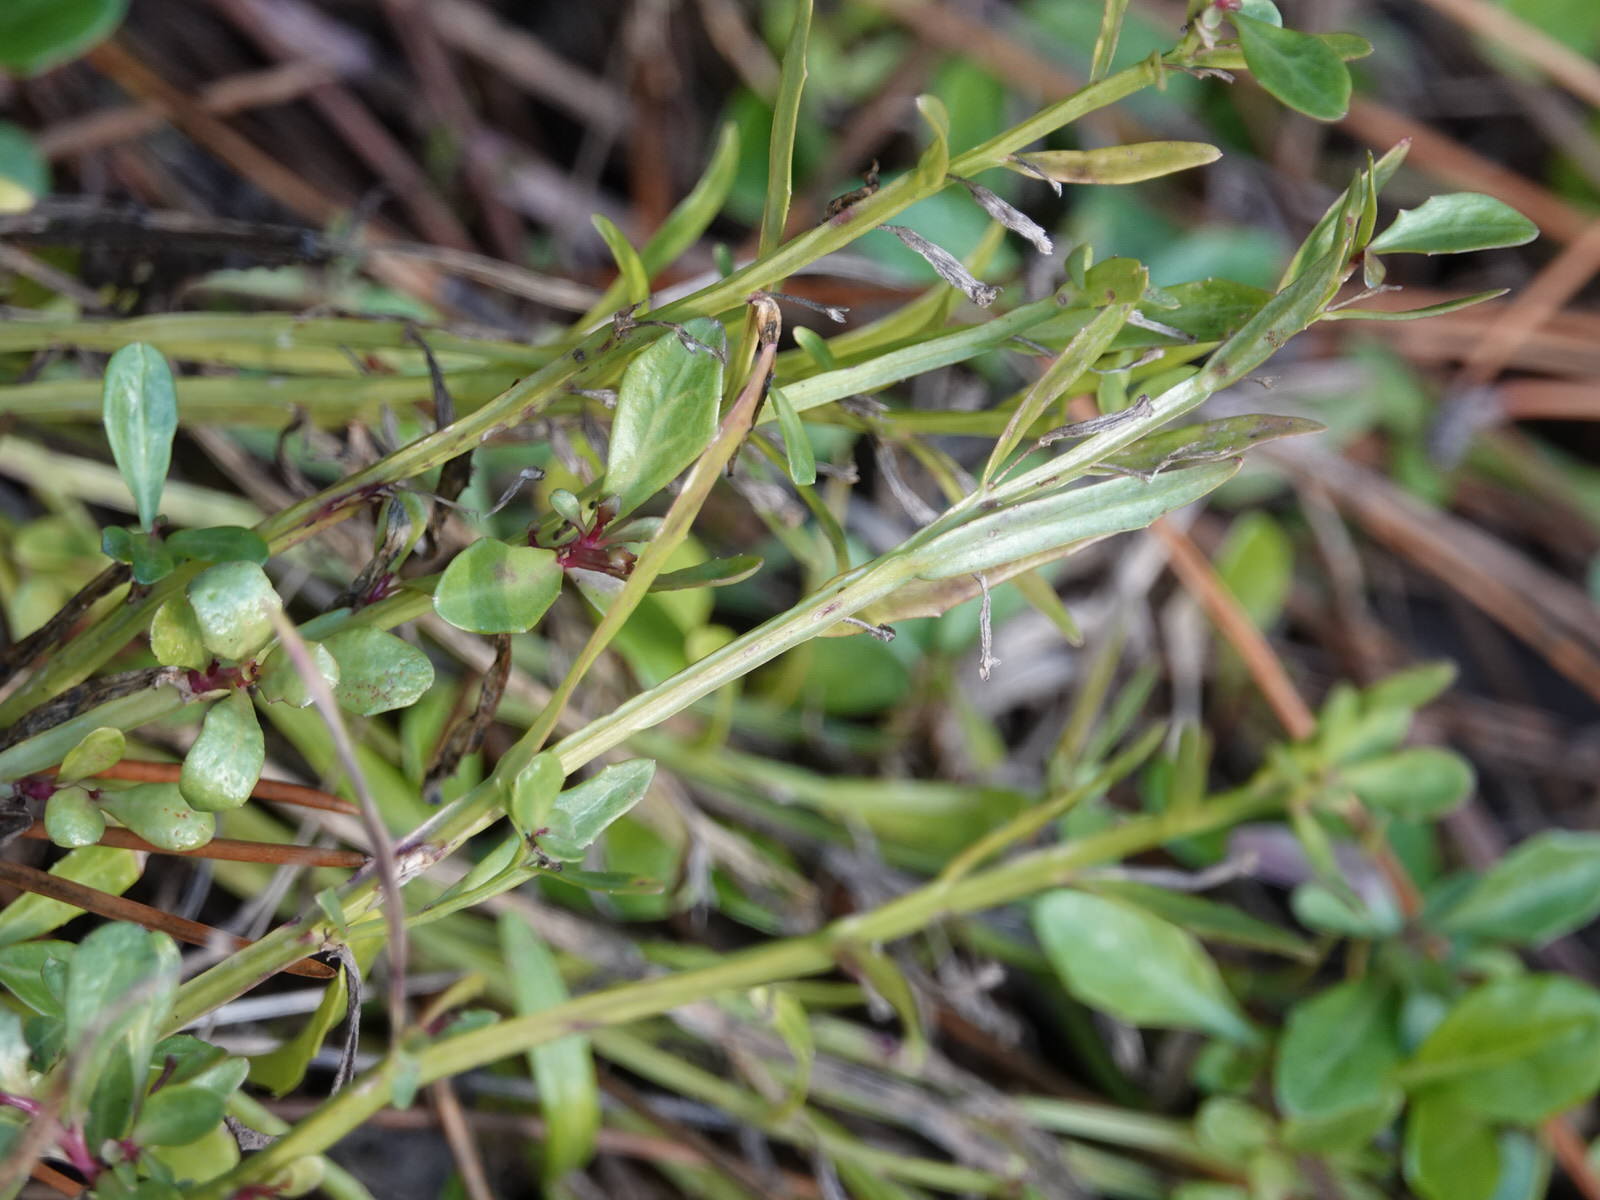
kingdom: Plantae
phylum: Tracheophyta
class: Magnoliopsida
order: Asterales
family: Campanulaceae
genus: Lobelia
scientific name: Lobelia anceps
